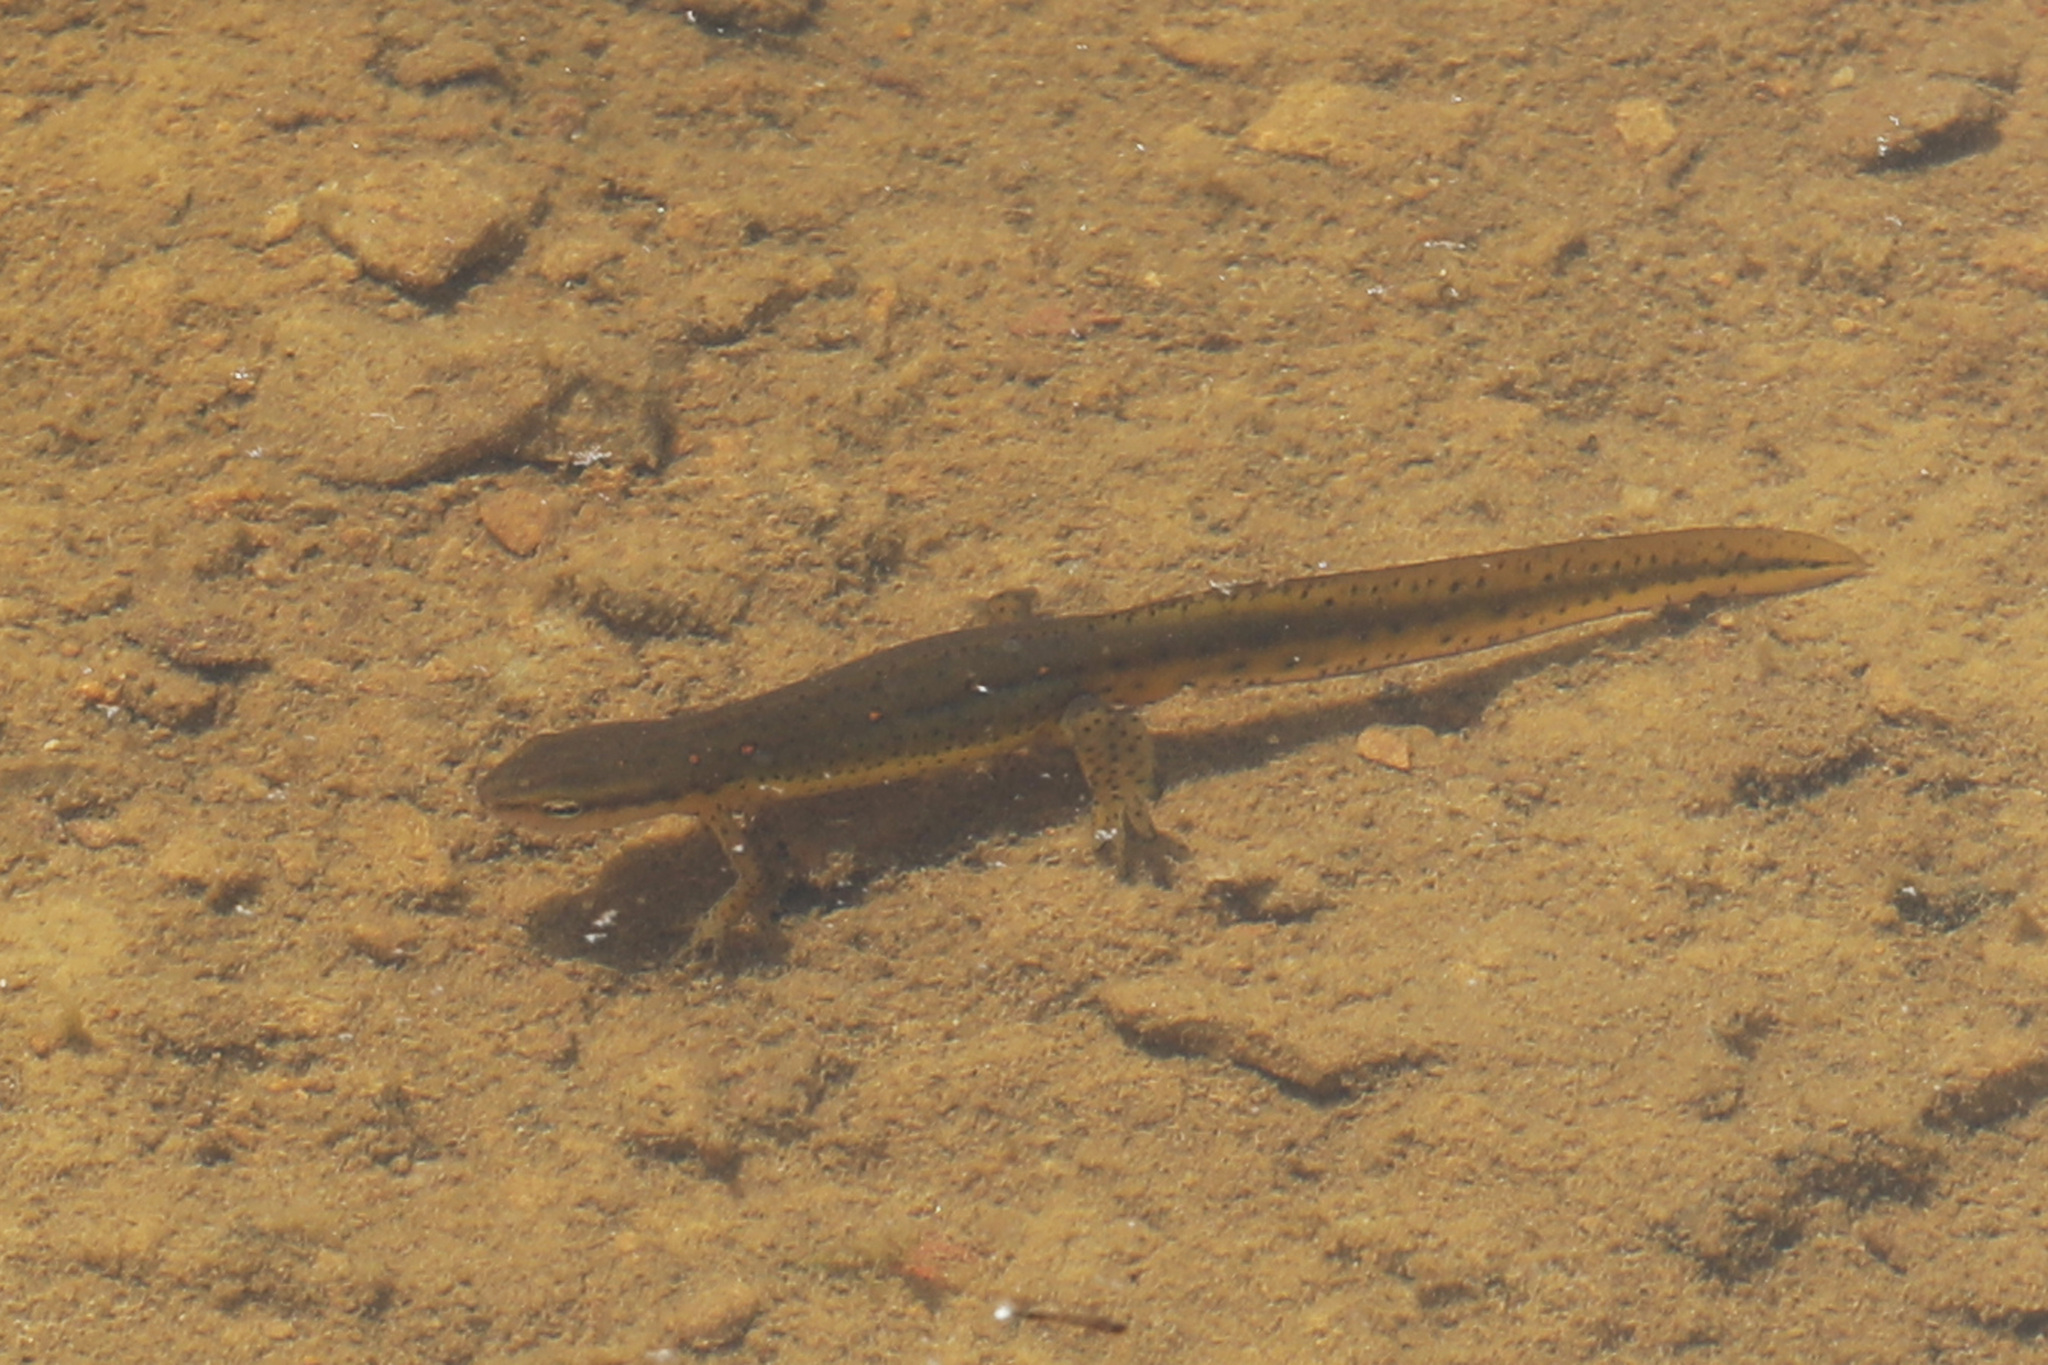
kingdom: Animalia
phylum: Chordata
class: Amphibia
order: Caudata
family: Salamandridae
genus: Notophthalmus
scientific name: Notophthalmus viridescens
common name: Eastern newt
